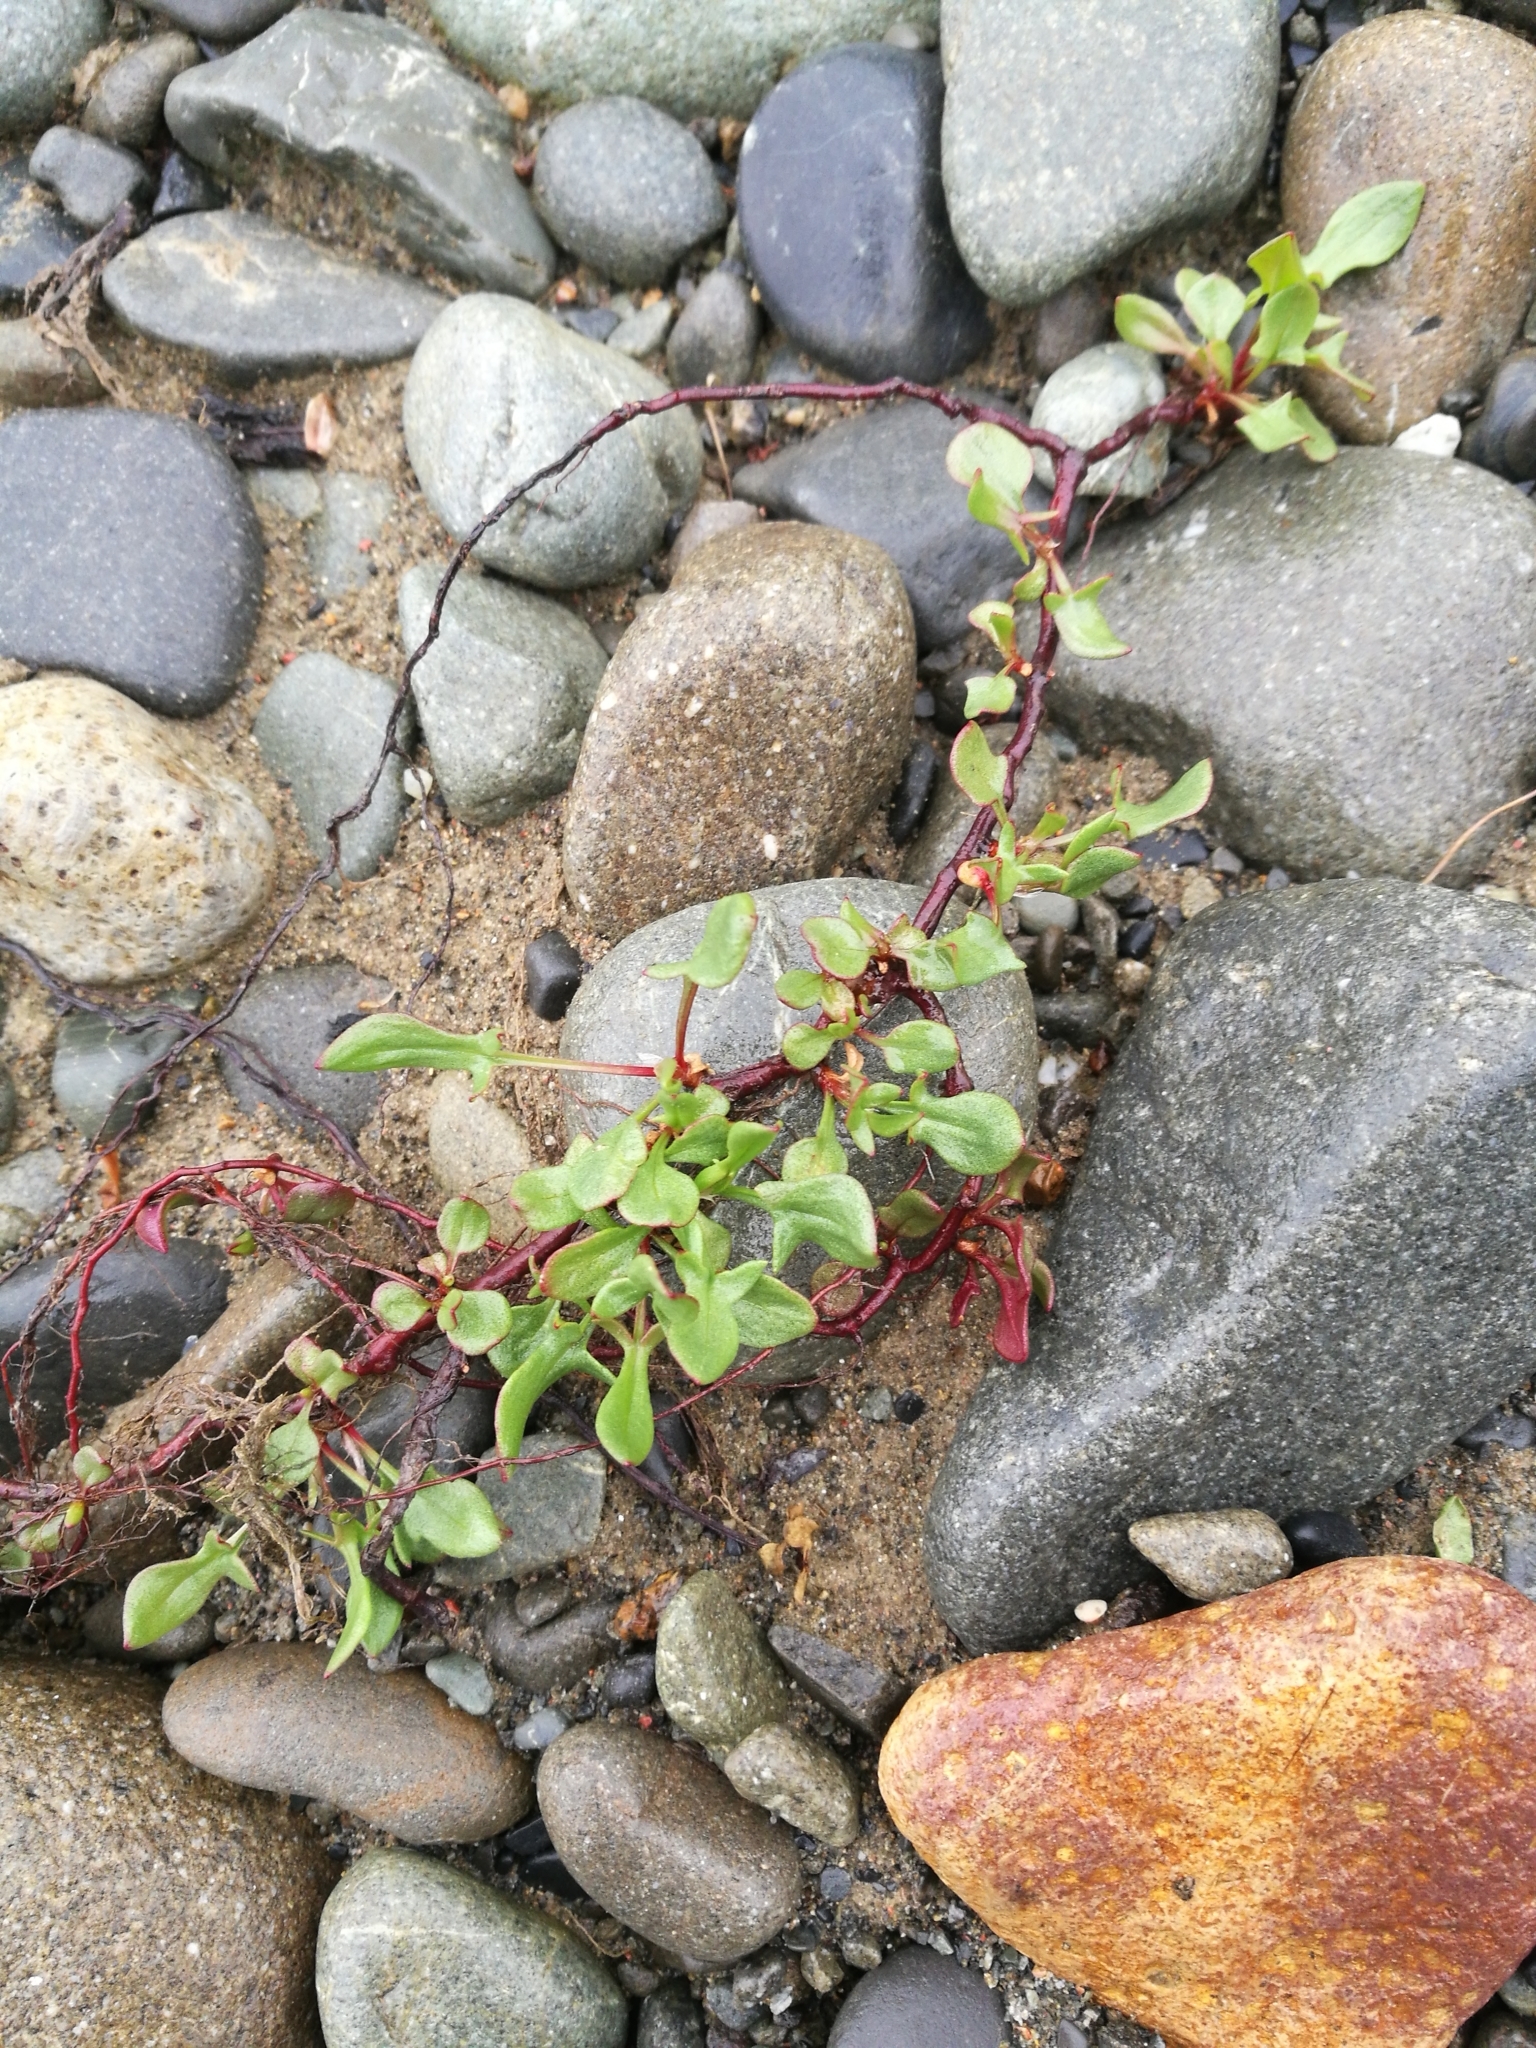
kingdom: Plantae
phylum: Tracheophyta
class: Magnoliopsida
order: Caryophyllales
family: Polygonaceae
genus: Rumex
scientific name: Rumex acetosella
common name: Common sheep sorrel
